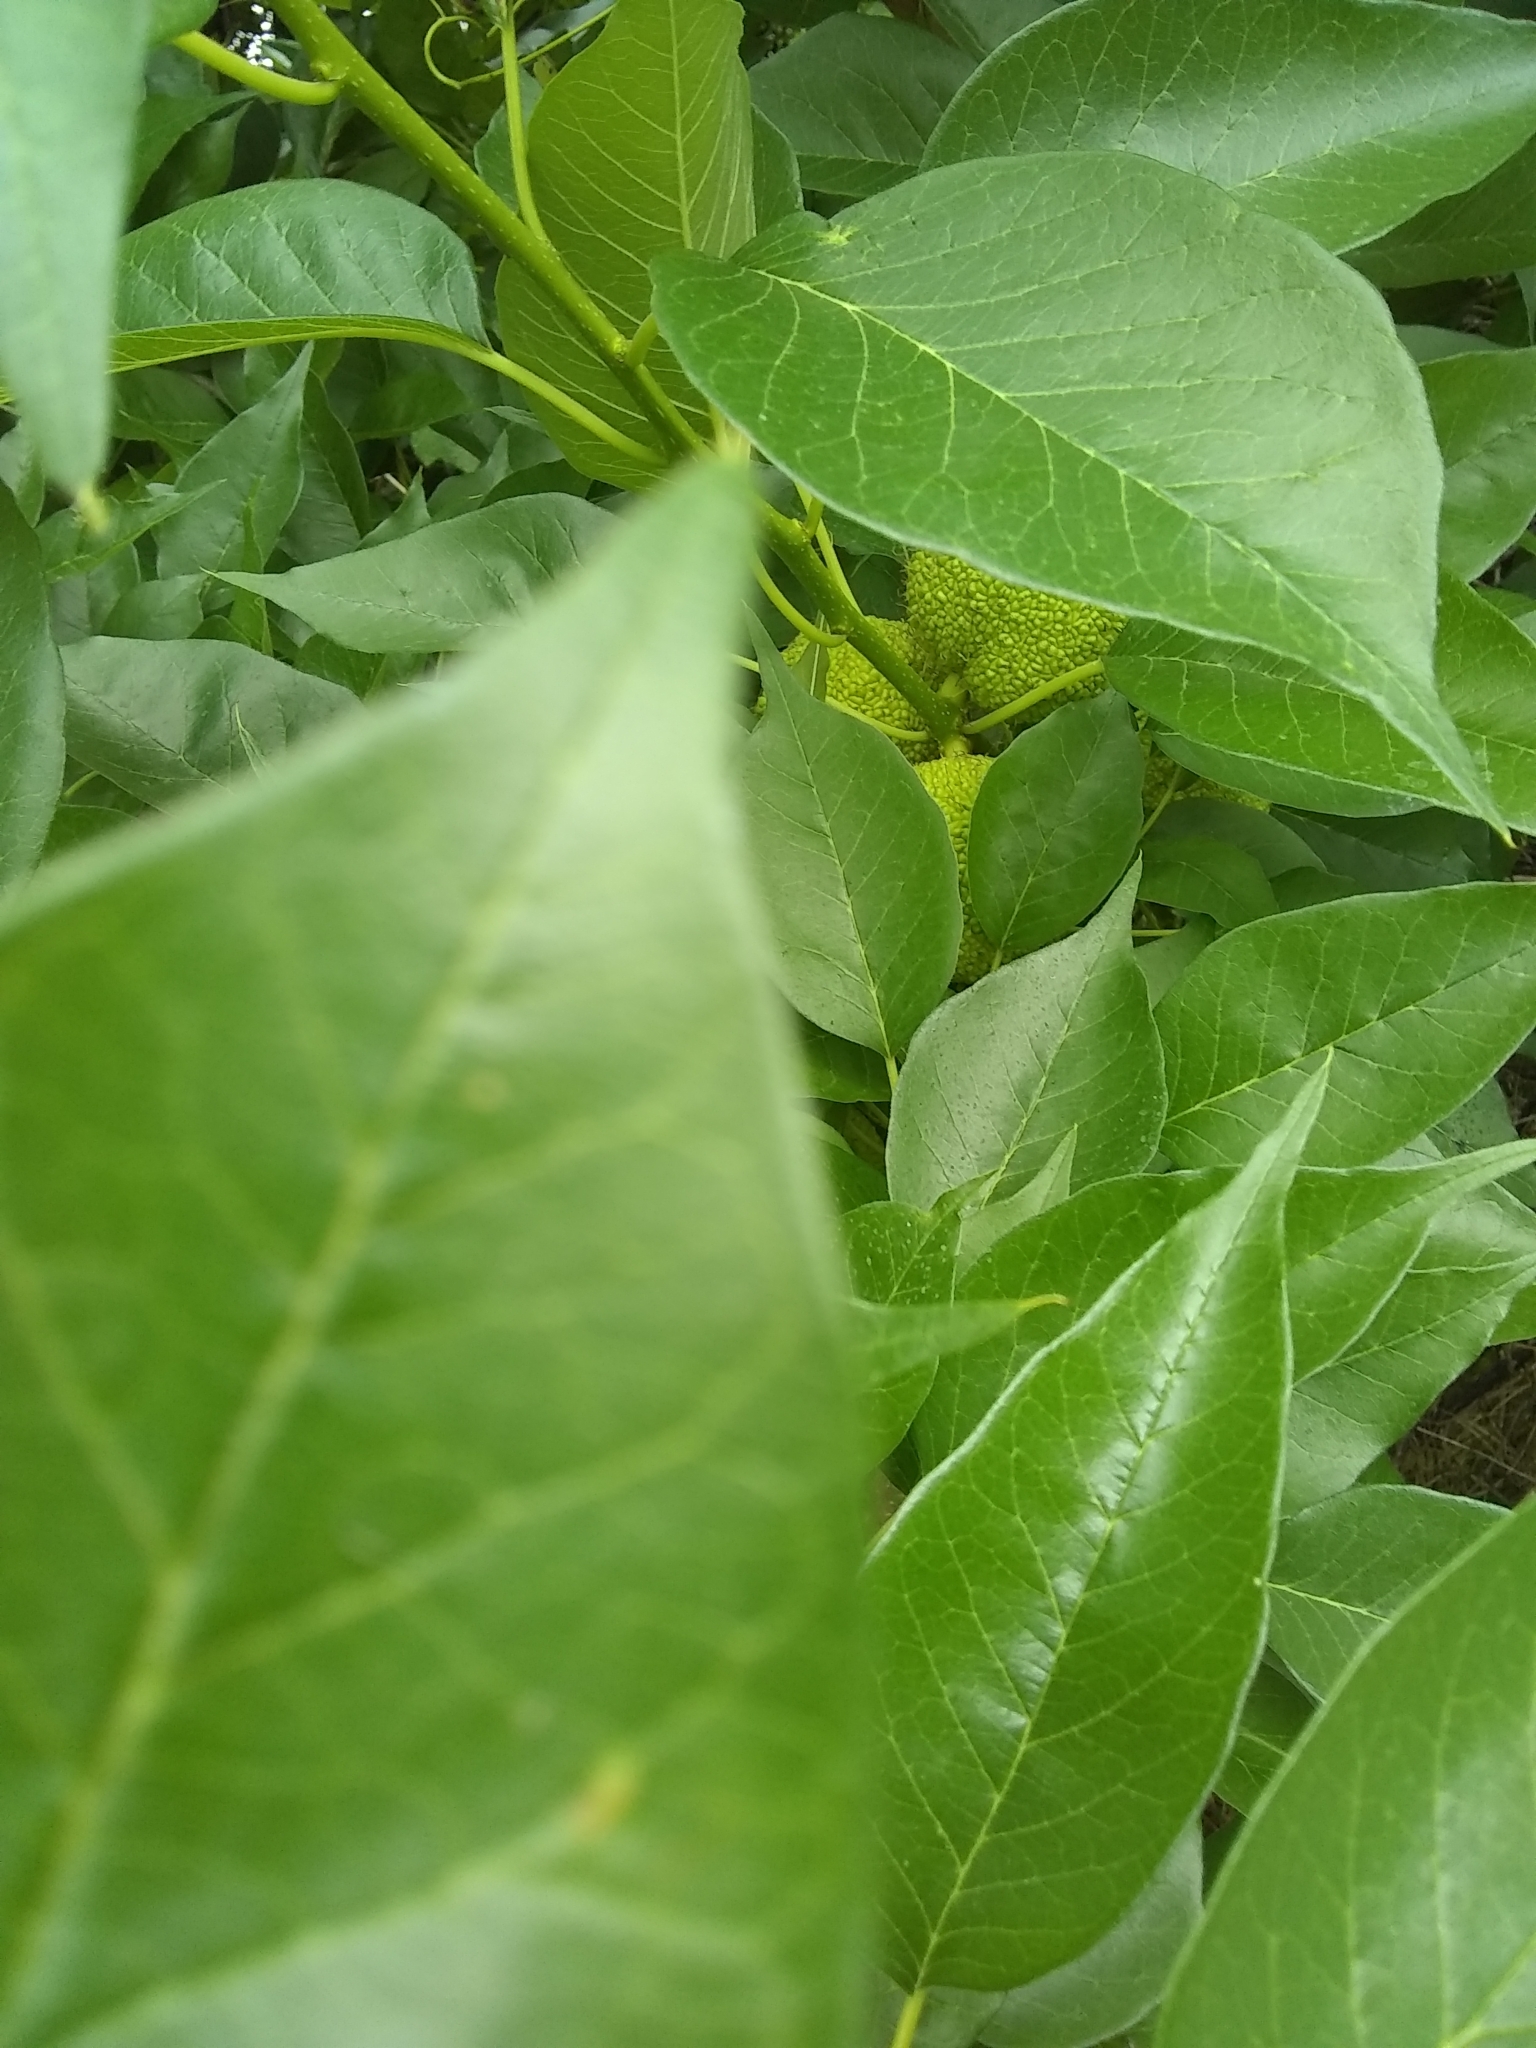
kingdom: Plantae
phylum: Tracheophyta
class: Magnoliopsida
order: Rosales
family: Moraceae
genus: Maclura
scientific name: Maclura pomifera
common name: Osage-orange
